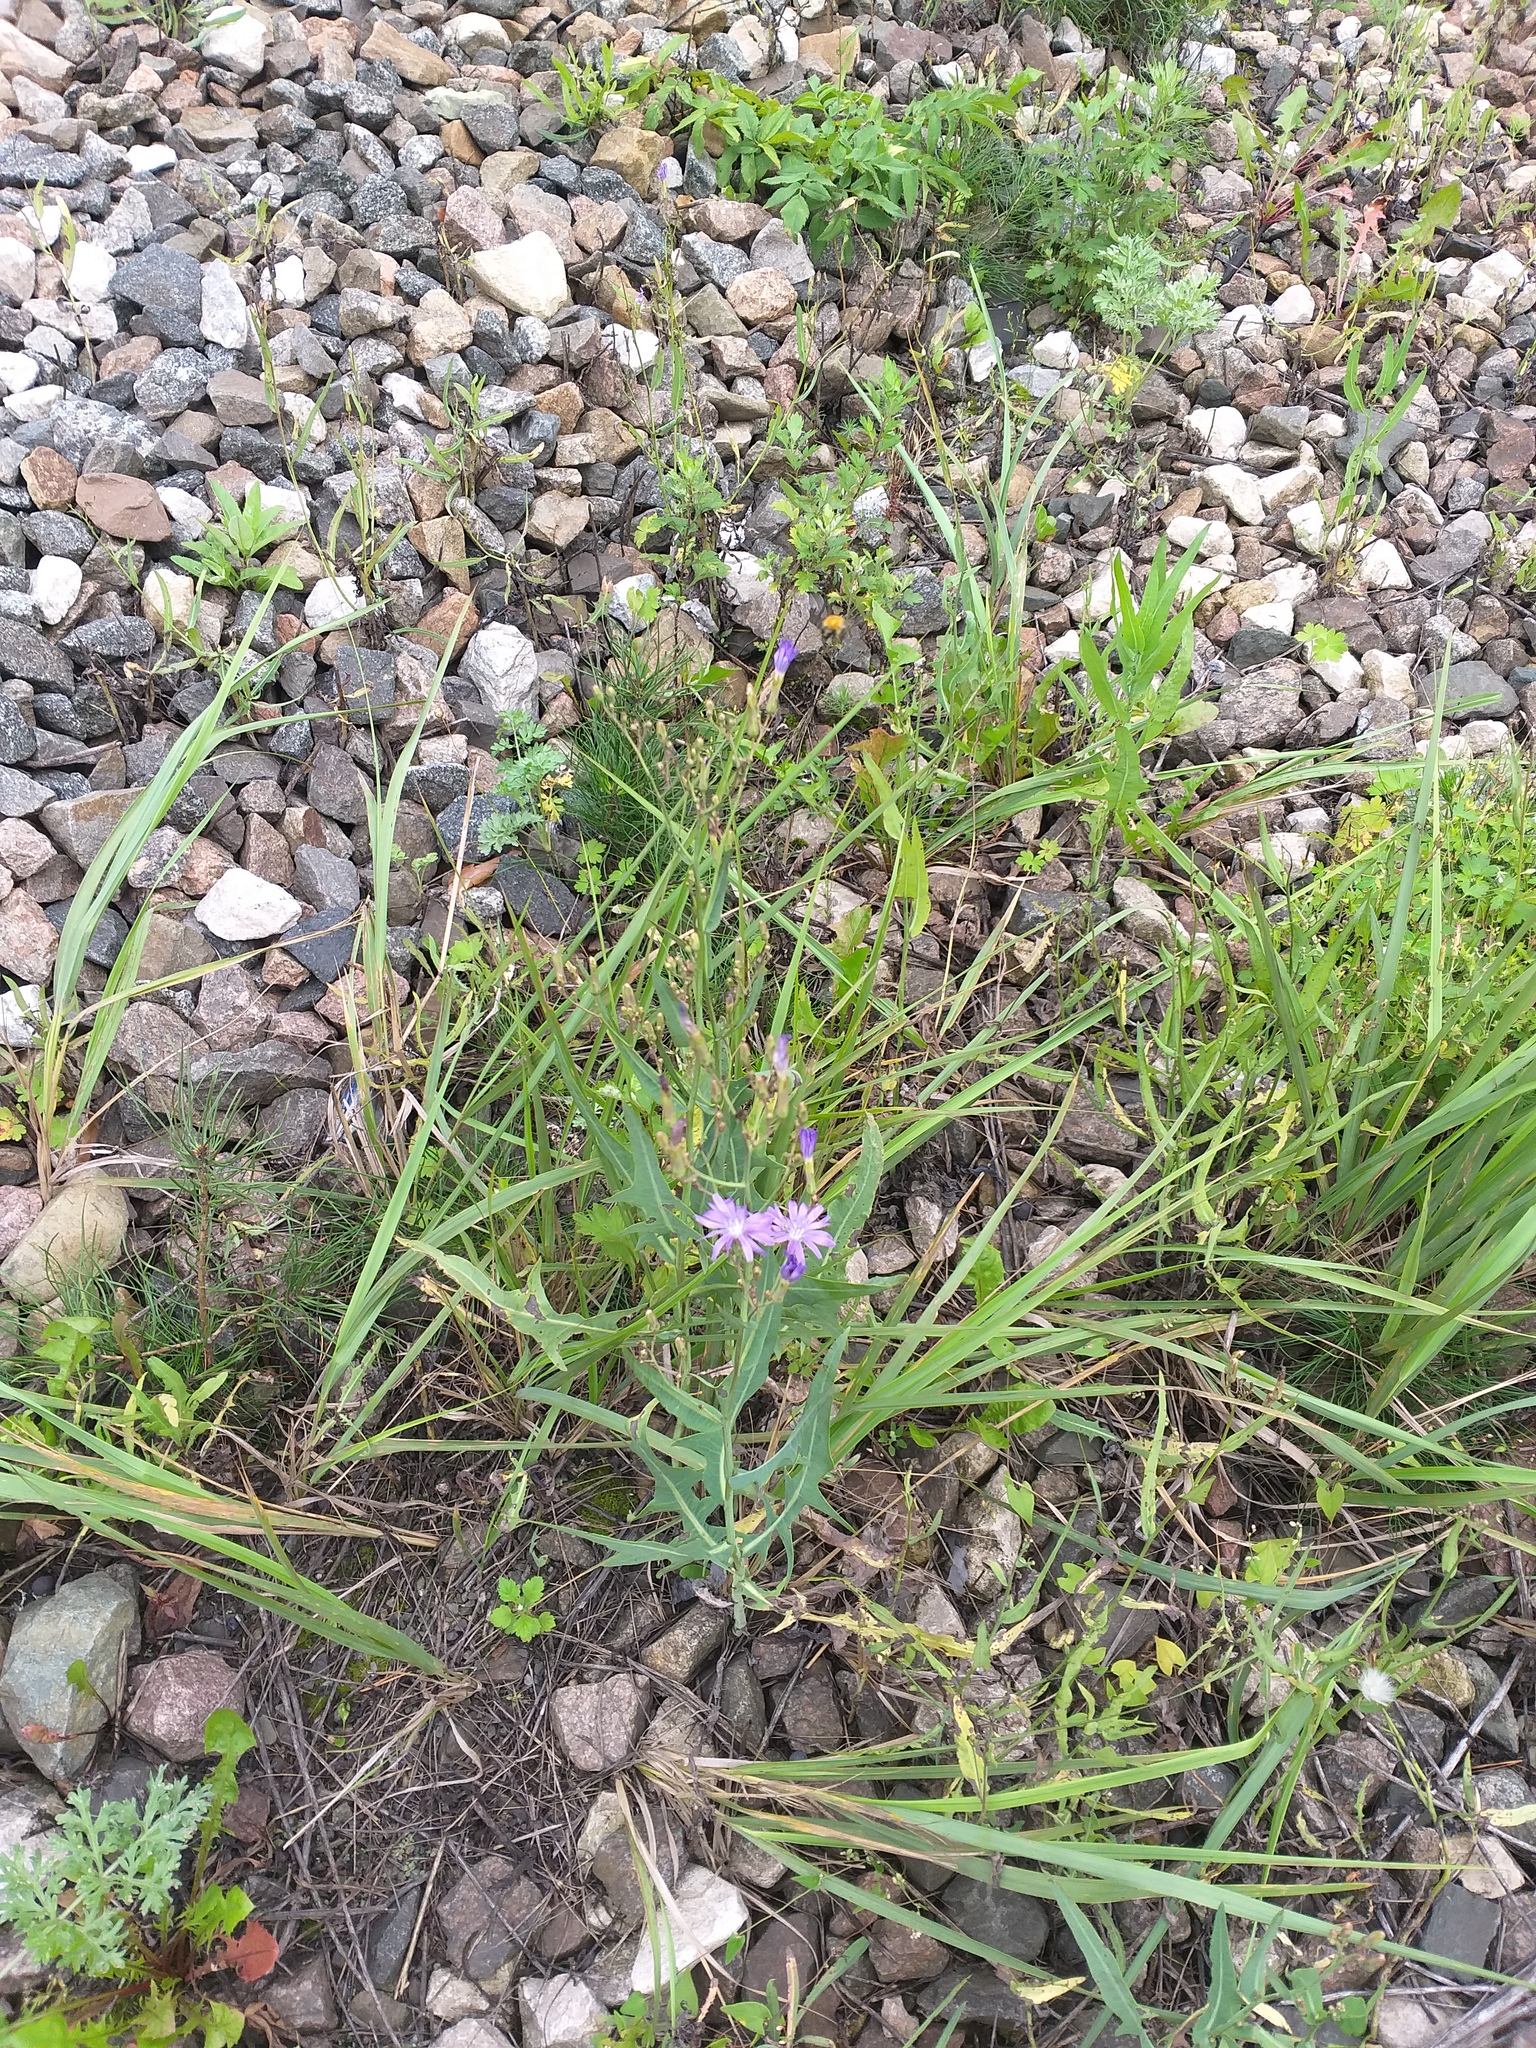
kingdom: Plantae
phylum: Tracheophyta
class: Magnoliopsida
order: Asterales
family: Asteraceae
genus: Lactuca
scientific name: Lactuca tatarica
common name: Blue lettuce
